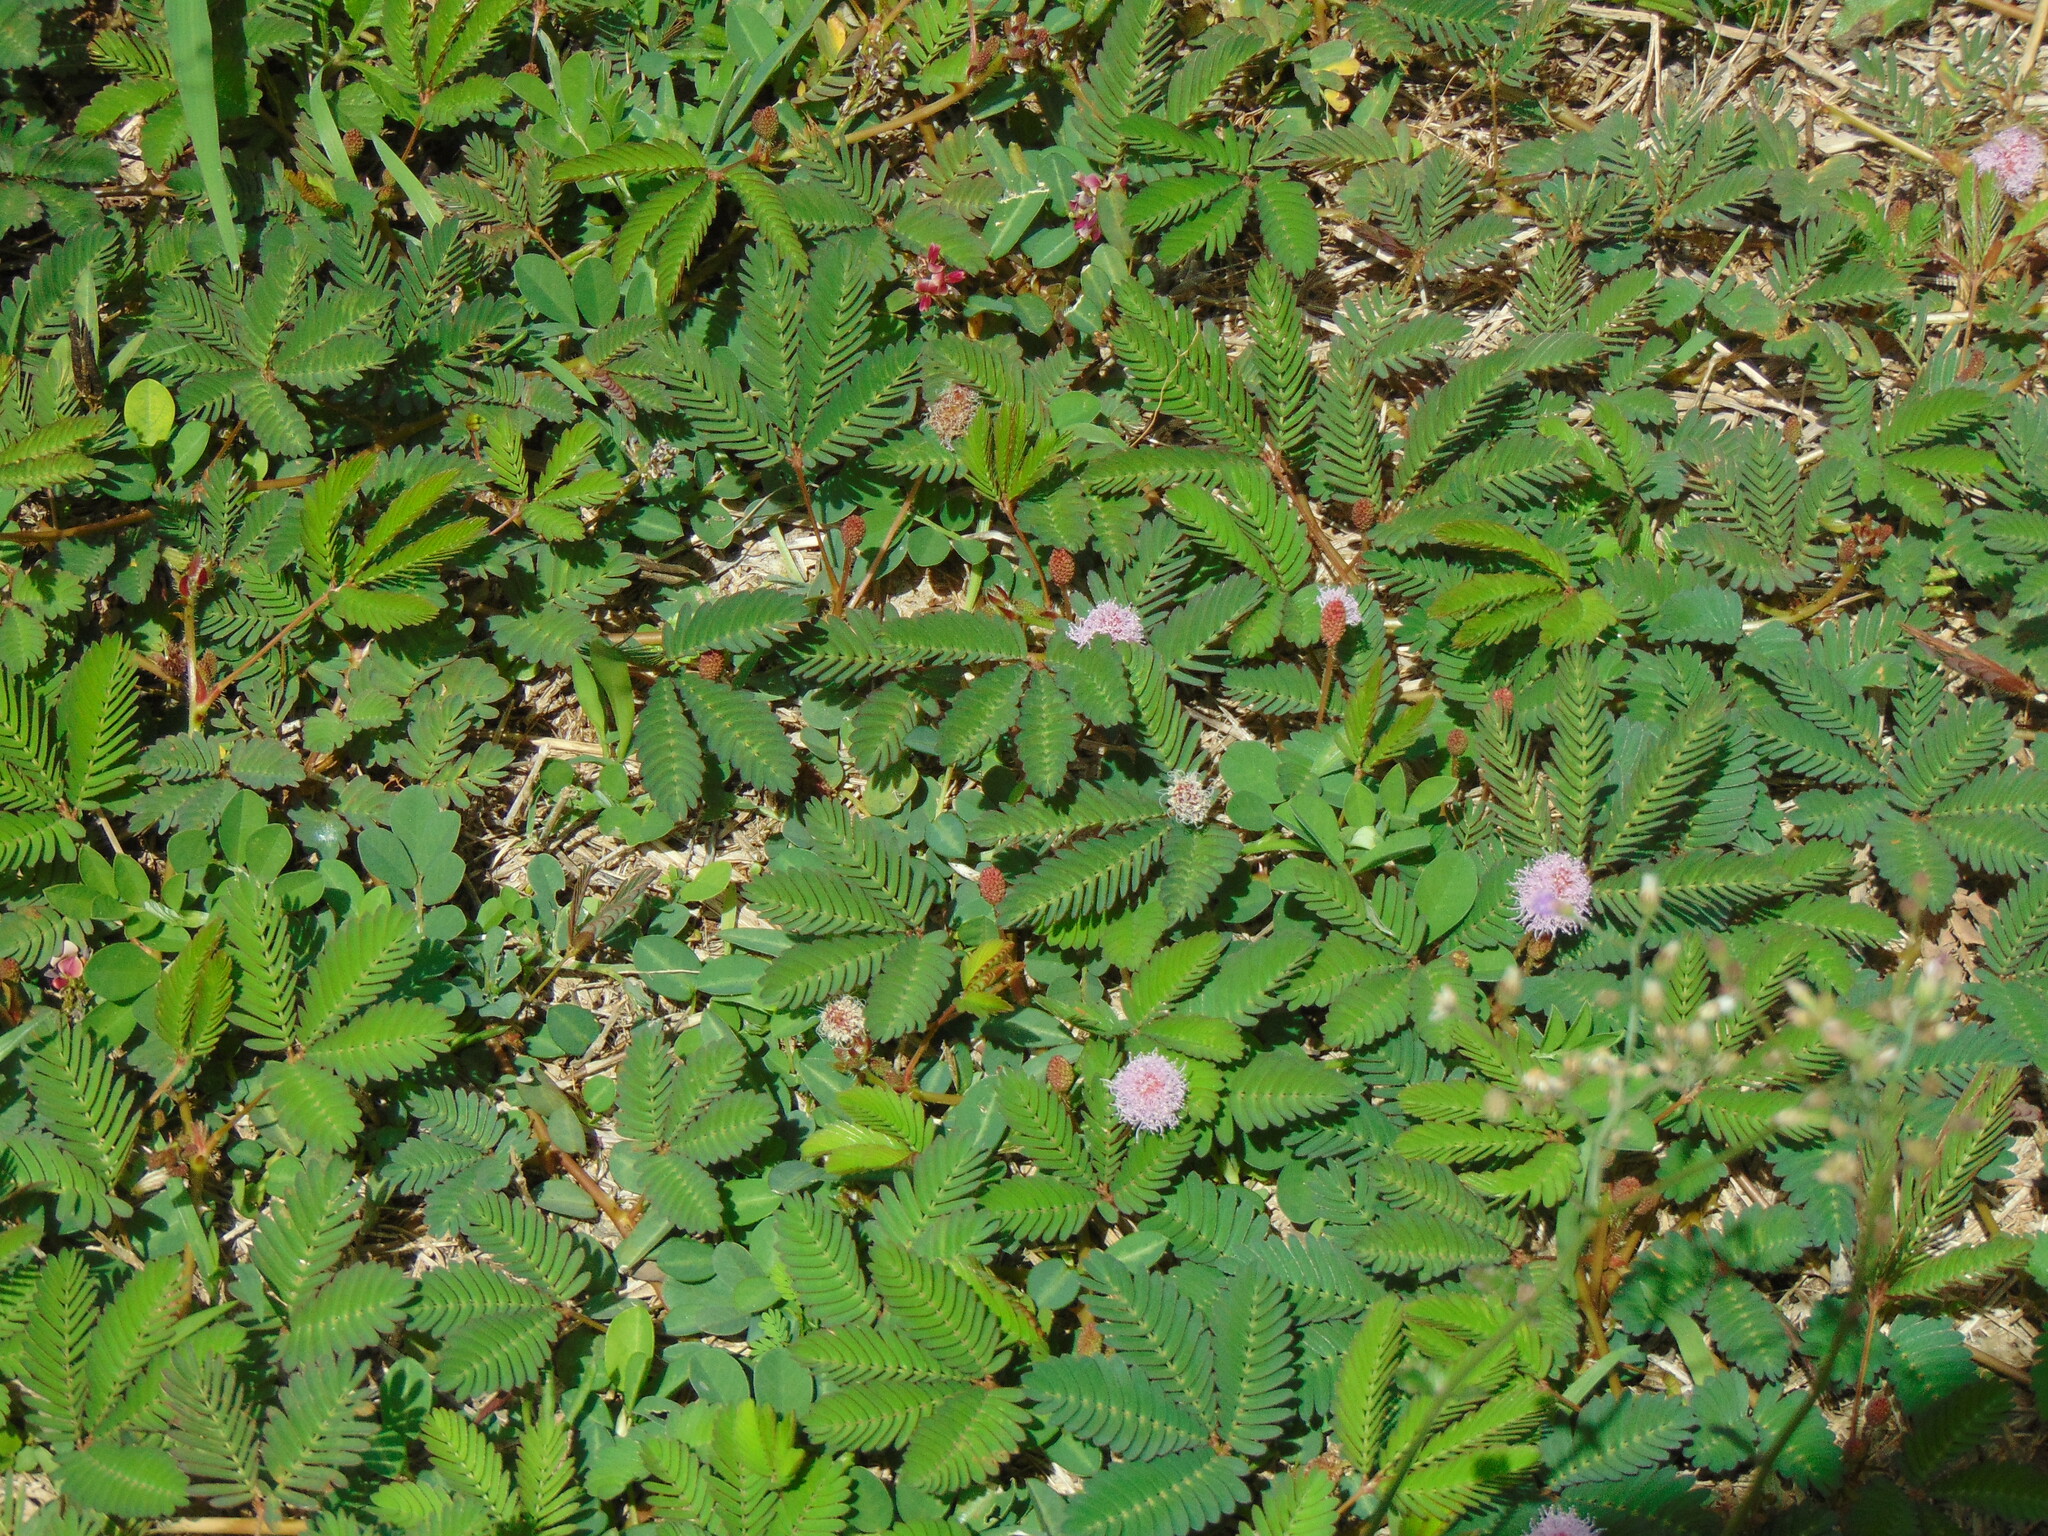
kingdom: Plantae
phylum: Tracheophyta
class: Magnoliopsida
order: Fabales
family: Fabaceae
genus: Mimosa
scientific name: Mimosa pudica
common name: Sensitive plant
